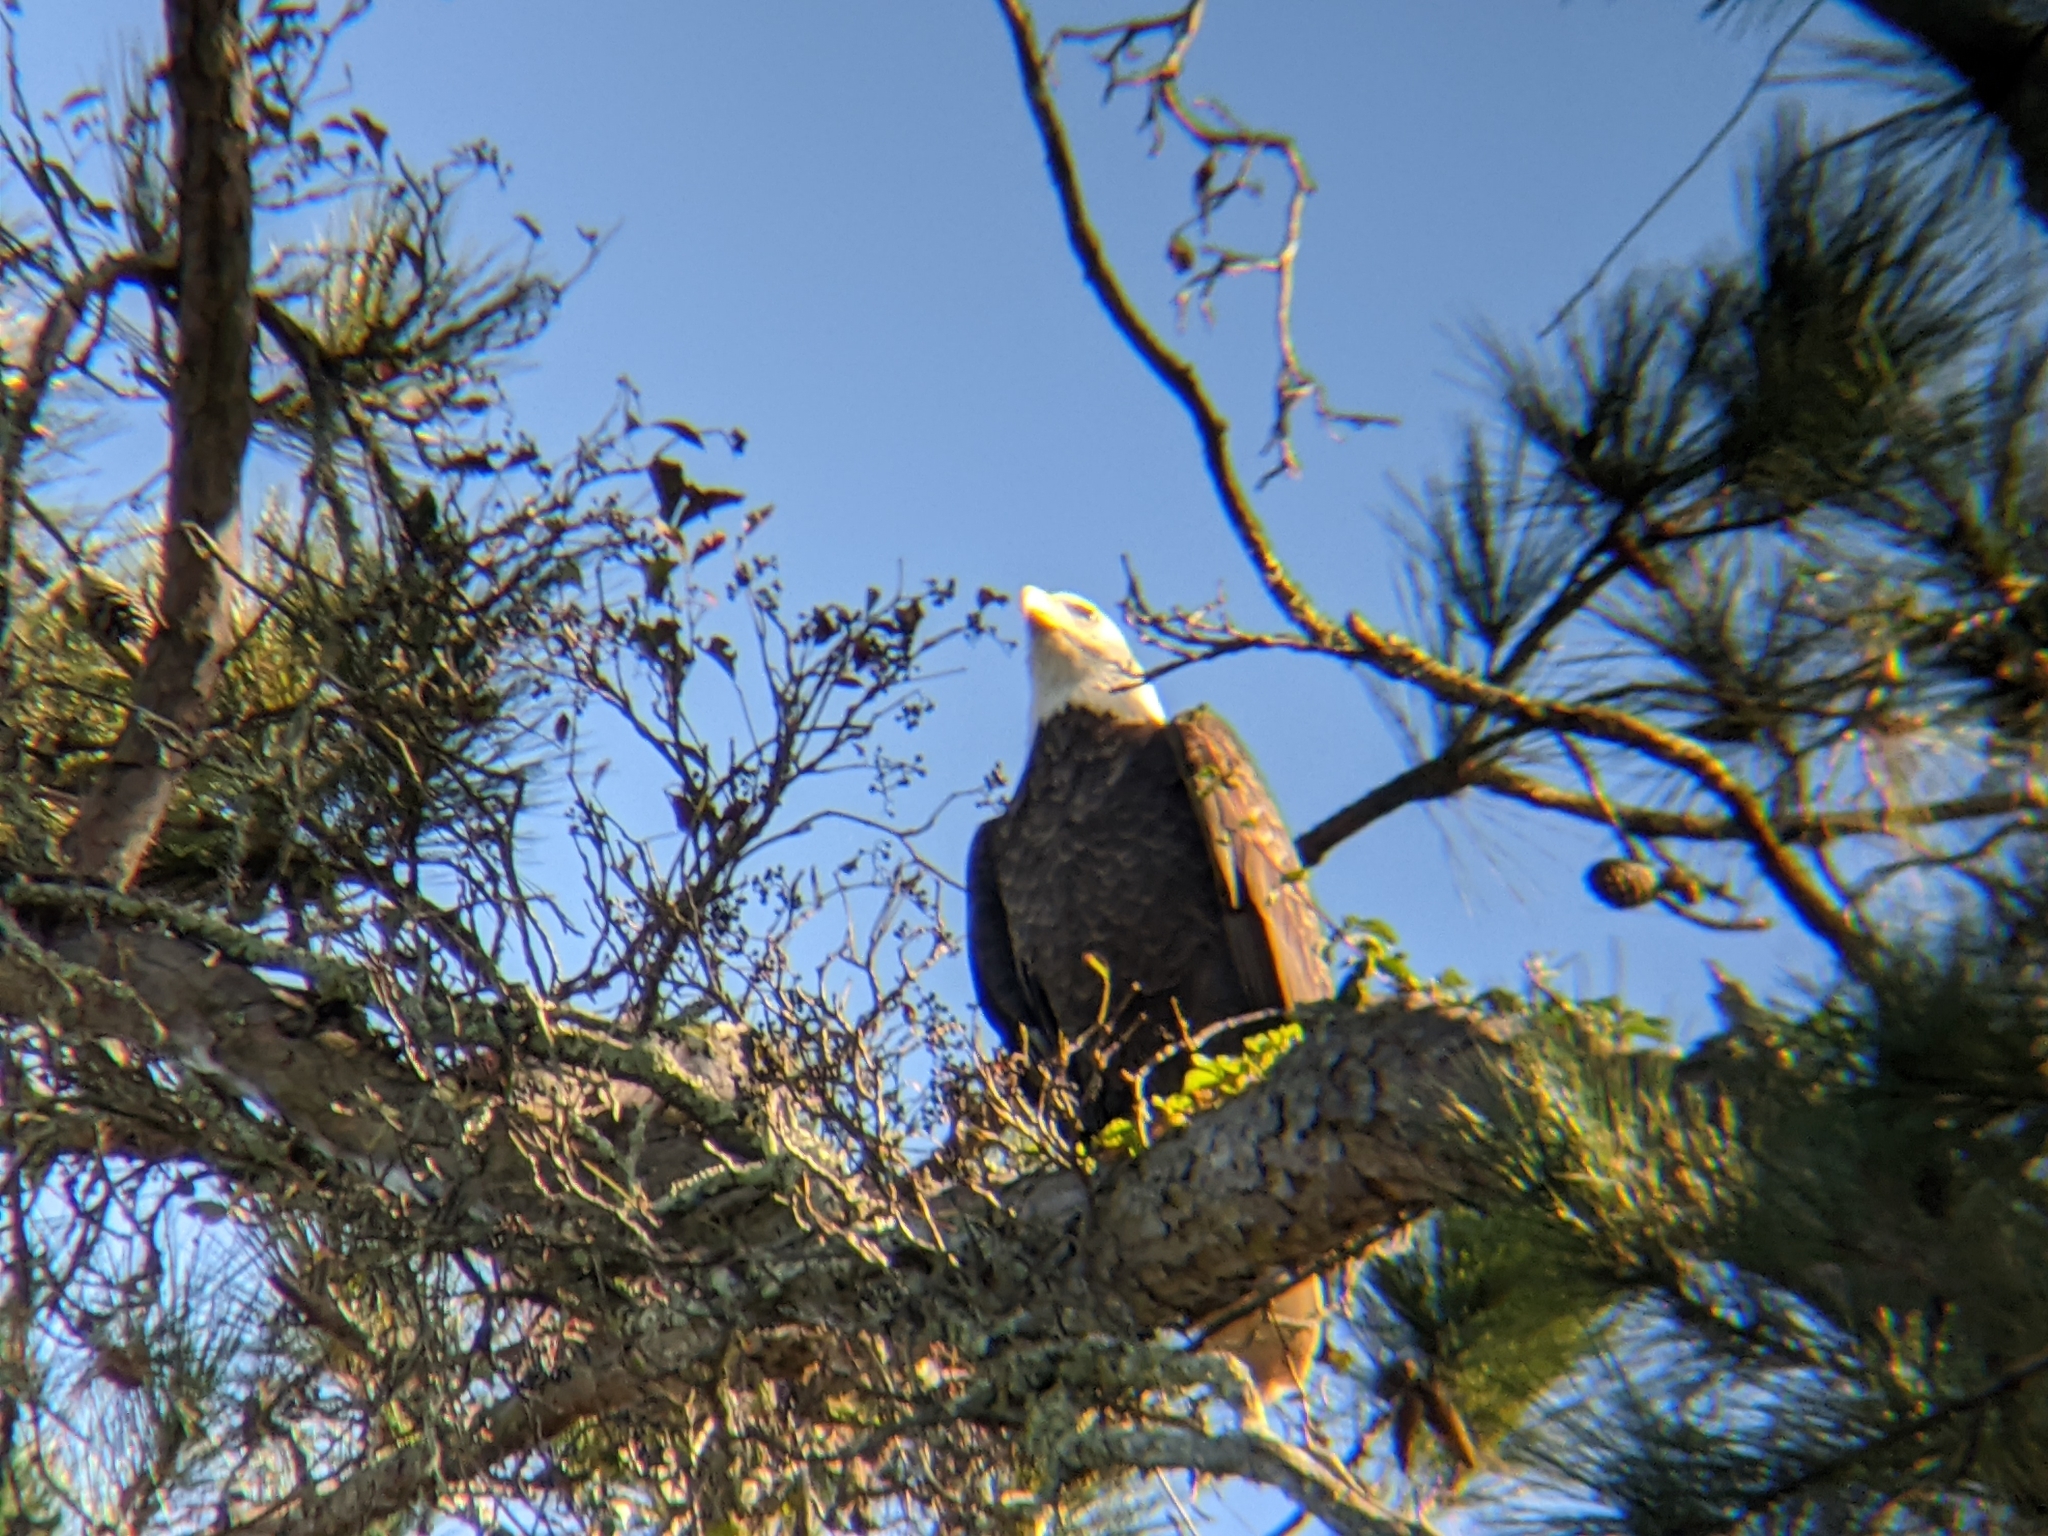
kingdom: Animalia
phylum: Chordata
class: Aves
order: Accipitriformes
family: Accipitridae
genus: Haliaeetus
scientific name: Haliaeetus leucocephalus
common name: Bald eagle
